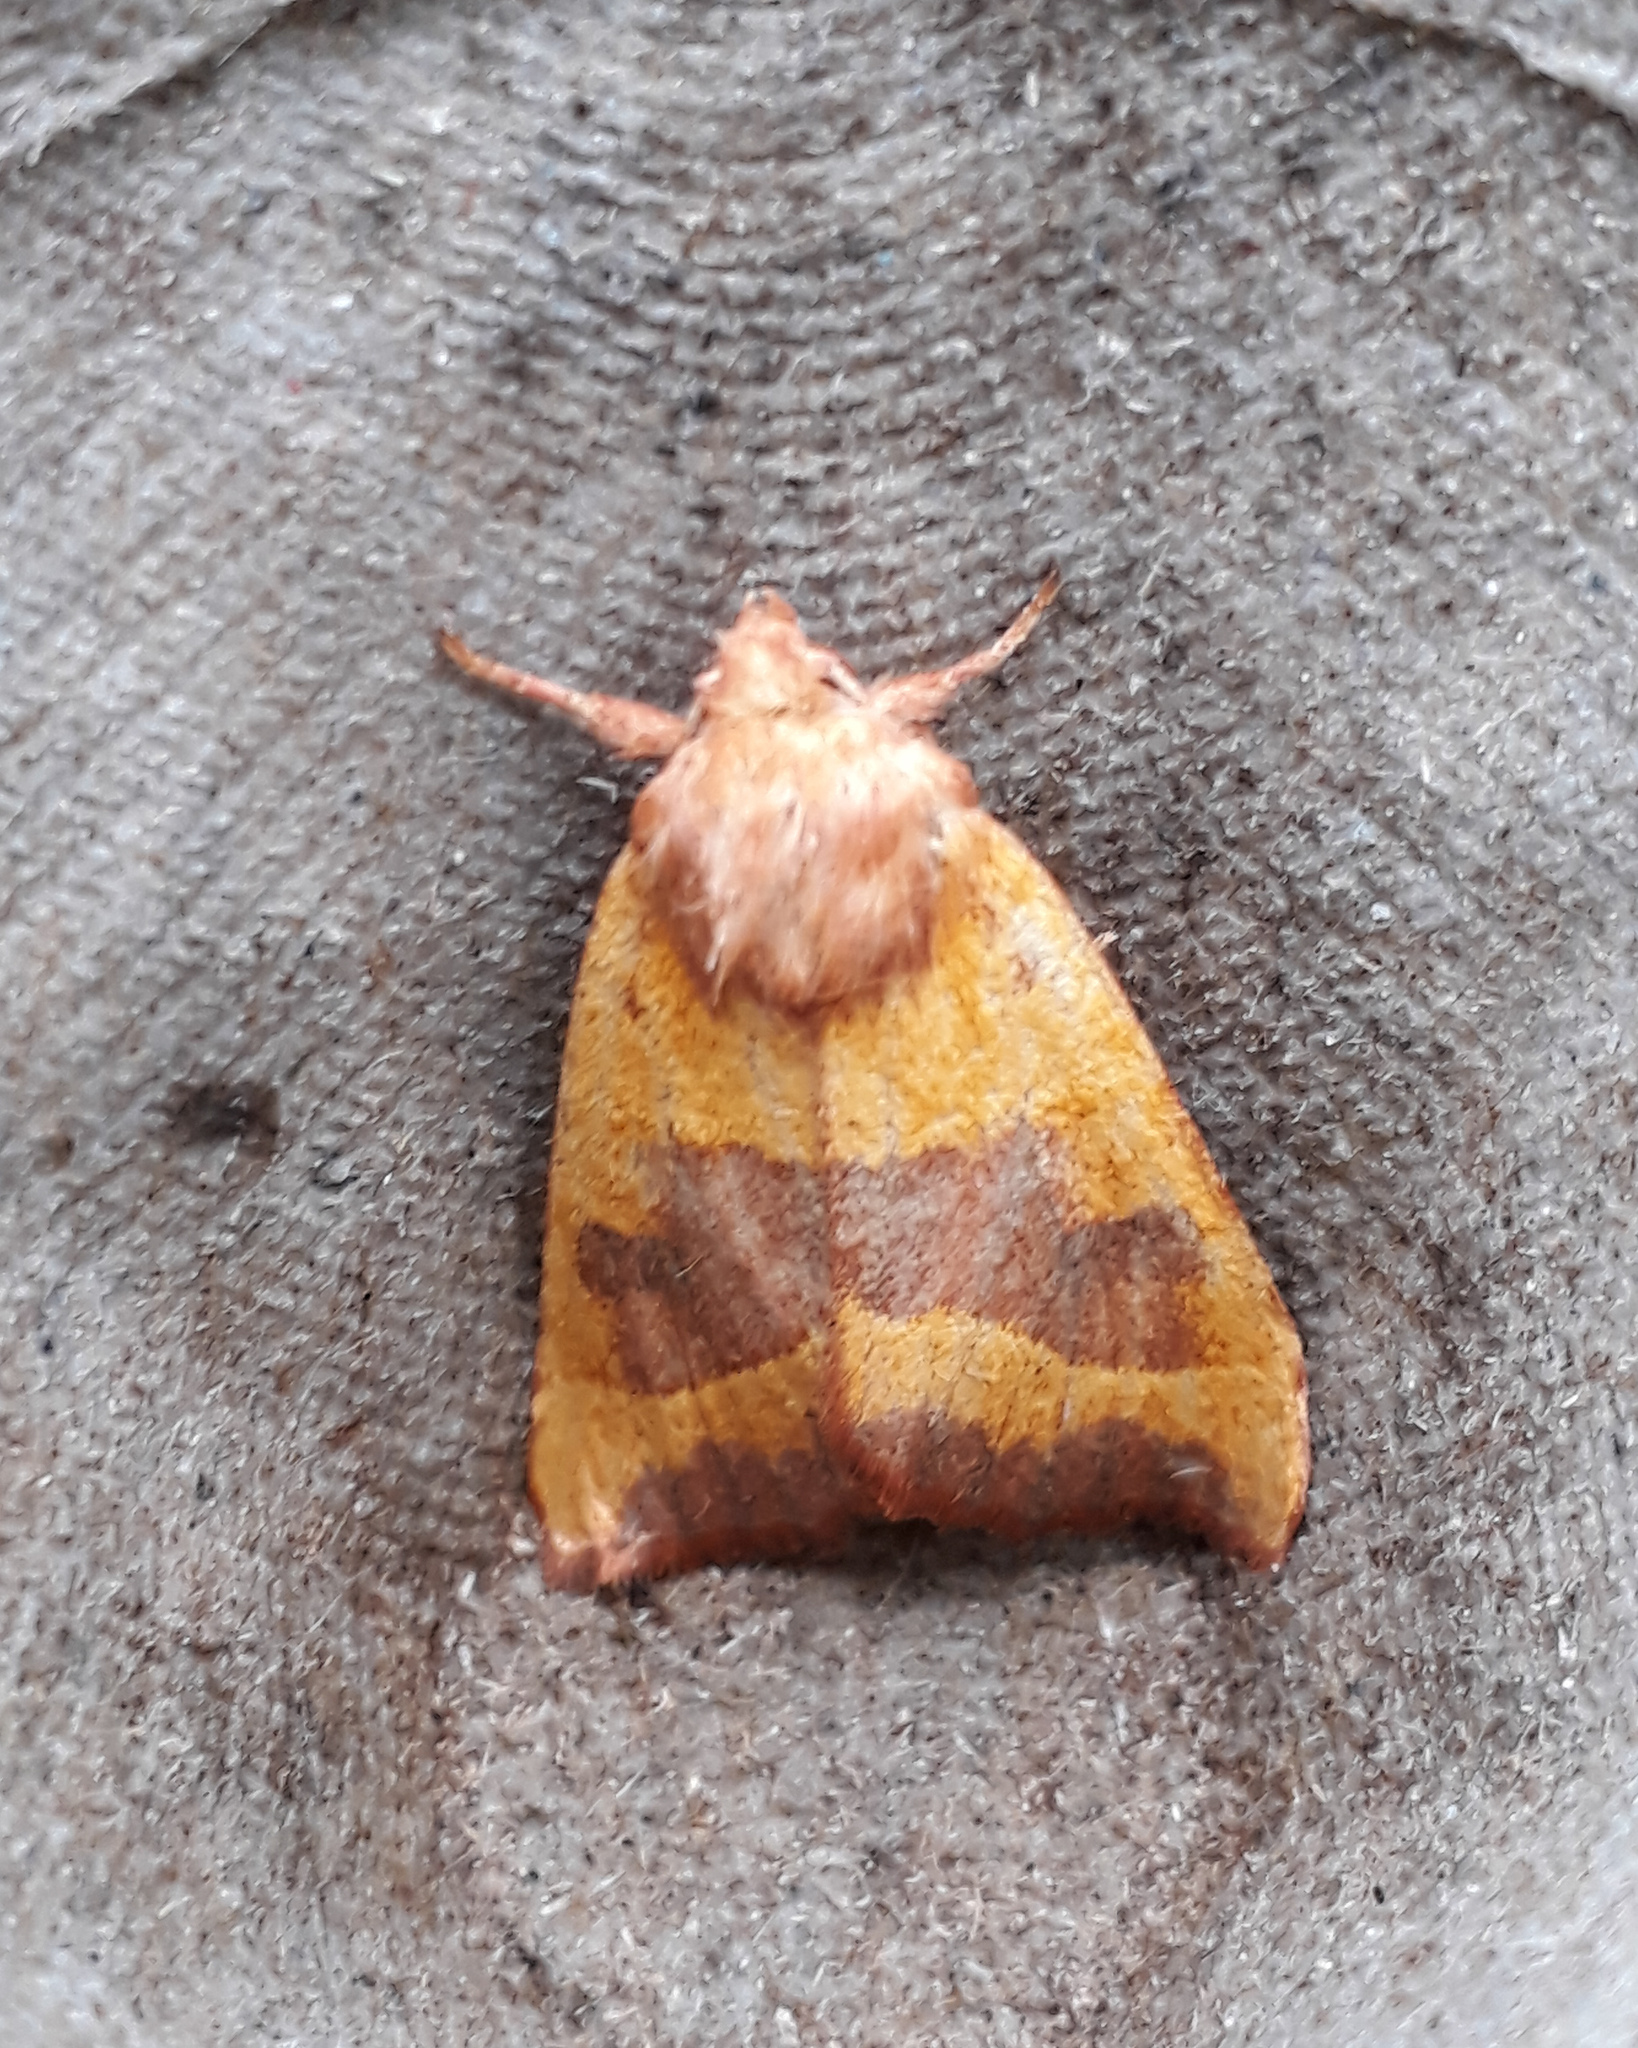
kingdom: Animalia
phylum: Arthropoda
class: Insecta
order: Lepidoptera
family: Noctuidae
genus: Atethmia
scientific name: Atethmia centrago
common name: Centre-barred sallow
